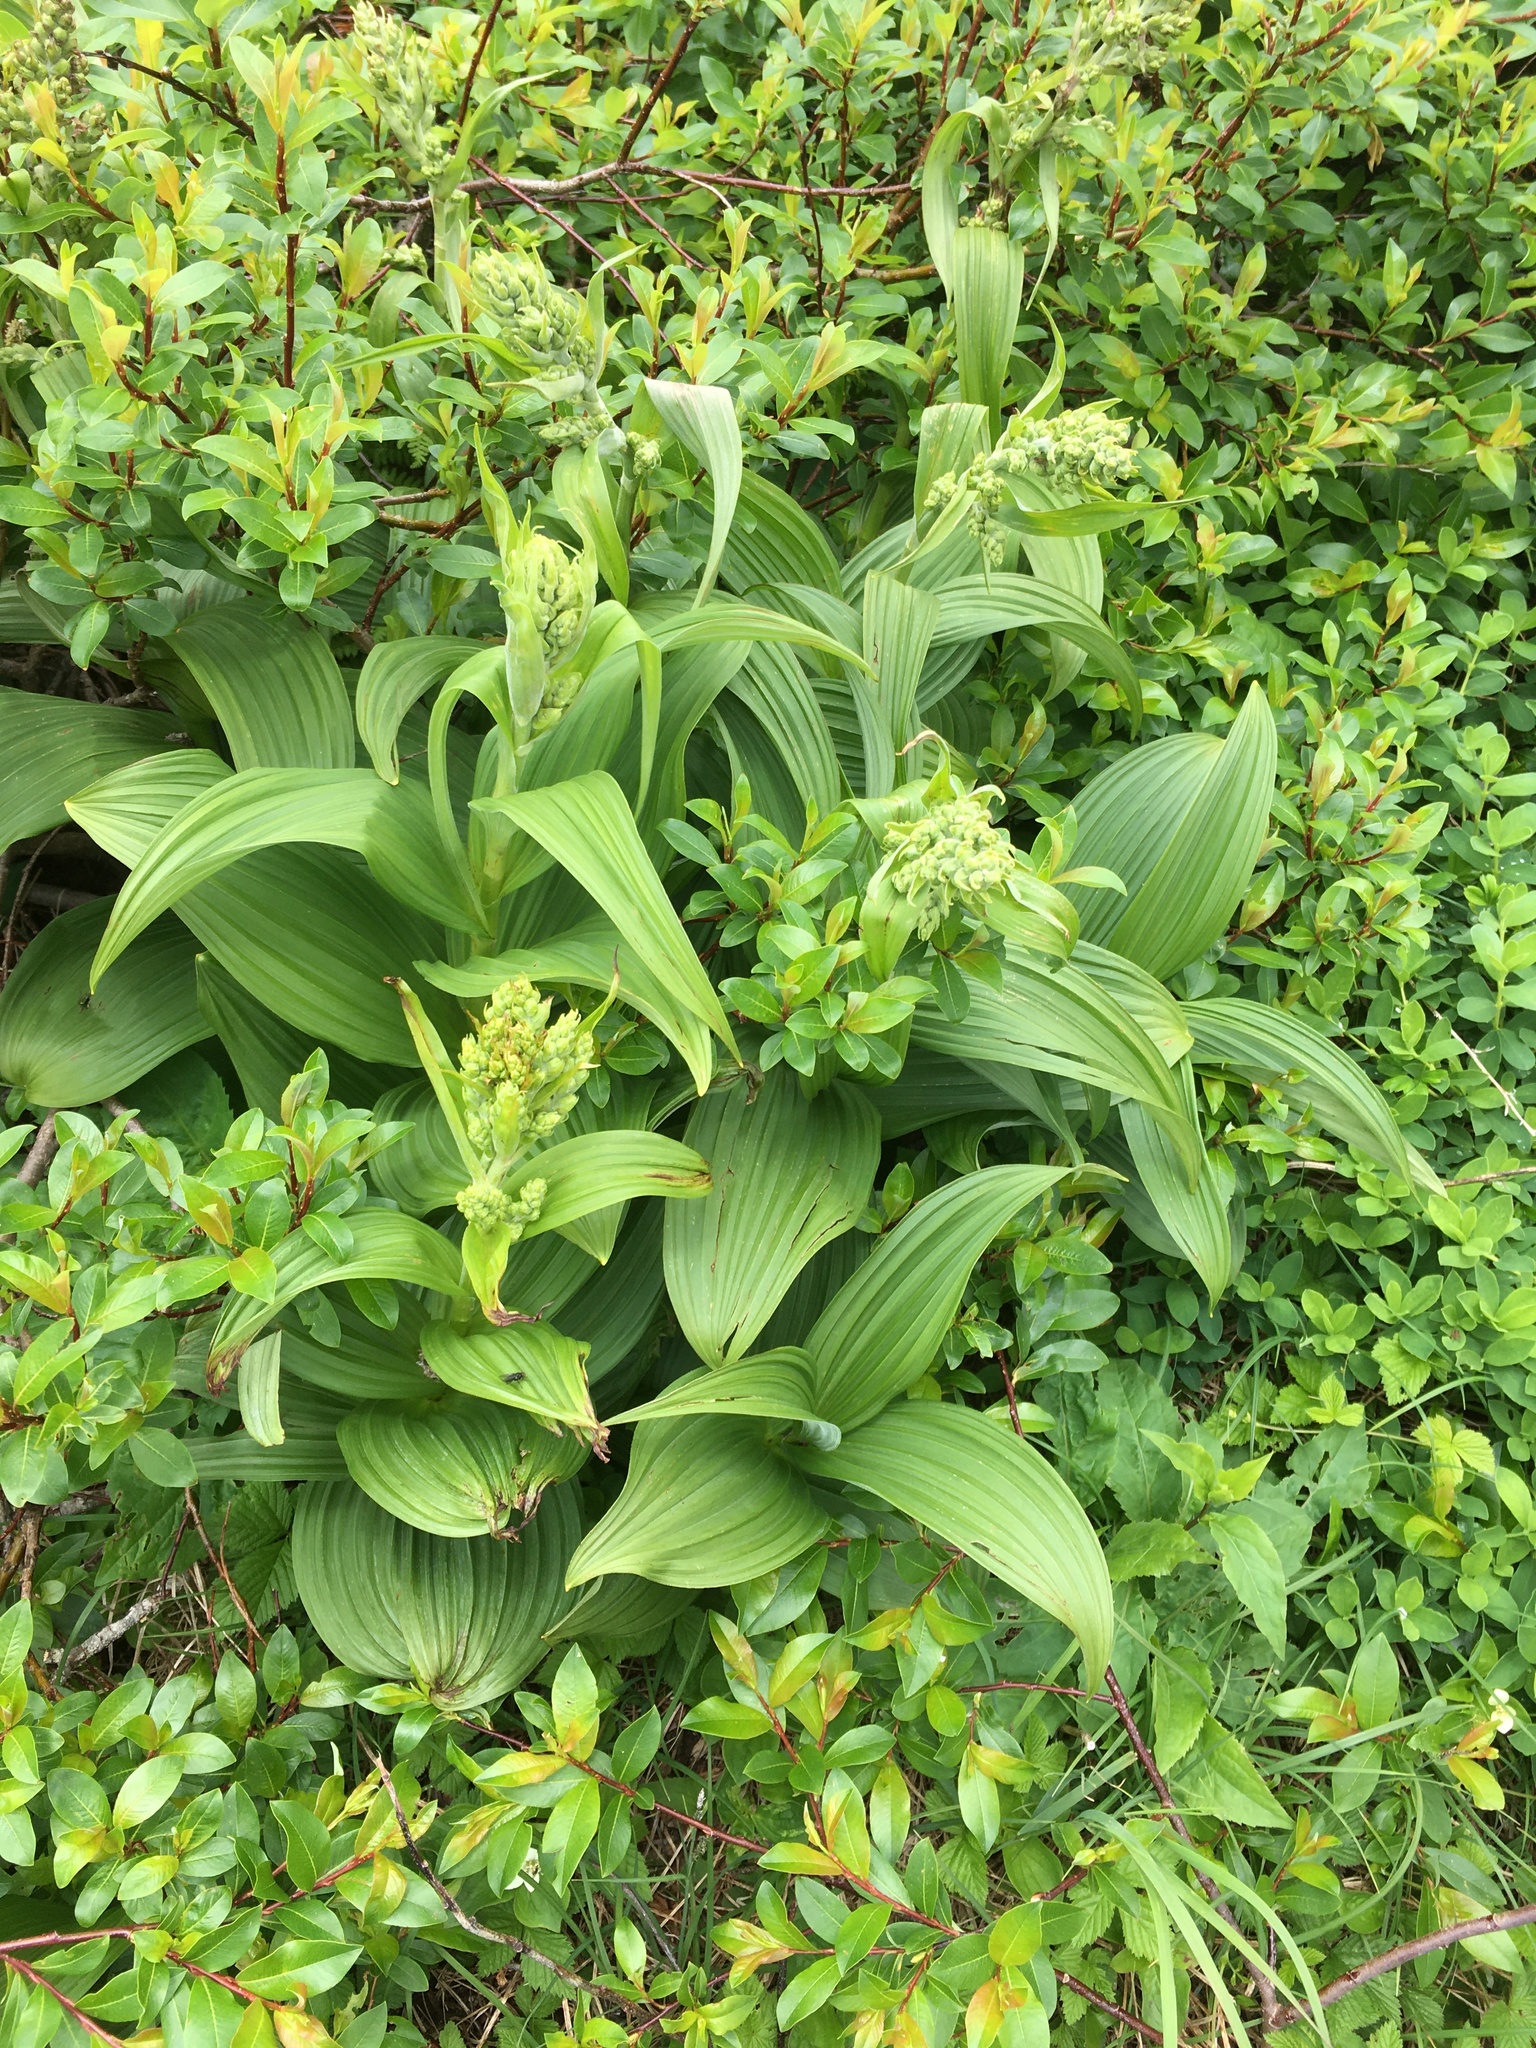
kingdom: Plantae
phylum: Tracheophyta
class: Liliopsida
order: Liliales
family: Melanthiaceae
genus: Veratrum
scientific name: Veratrum viride
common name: American false hellebore
